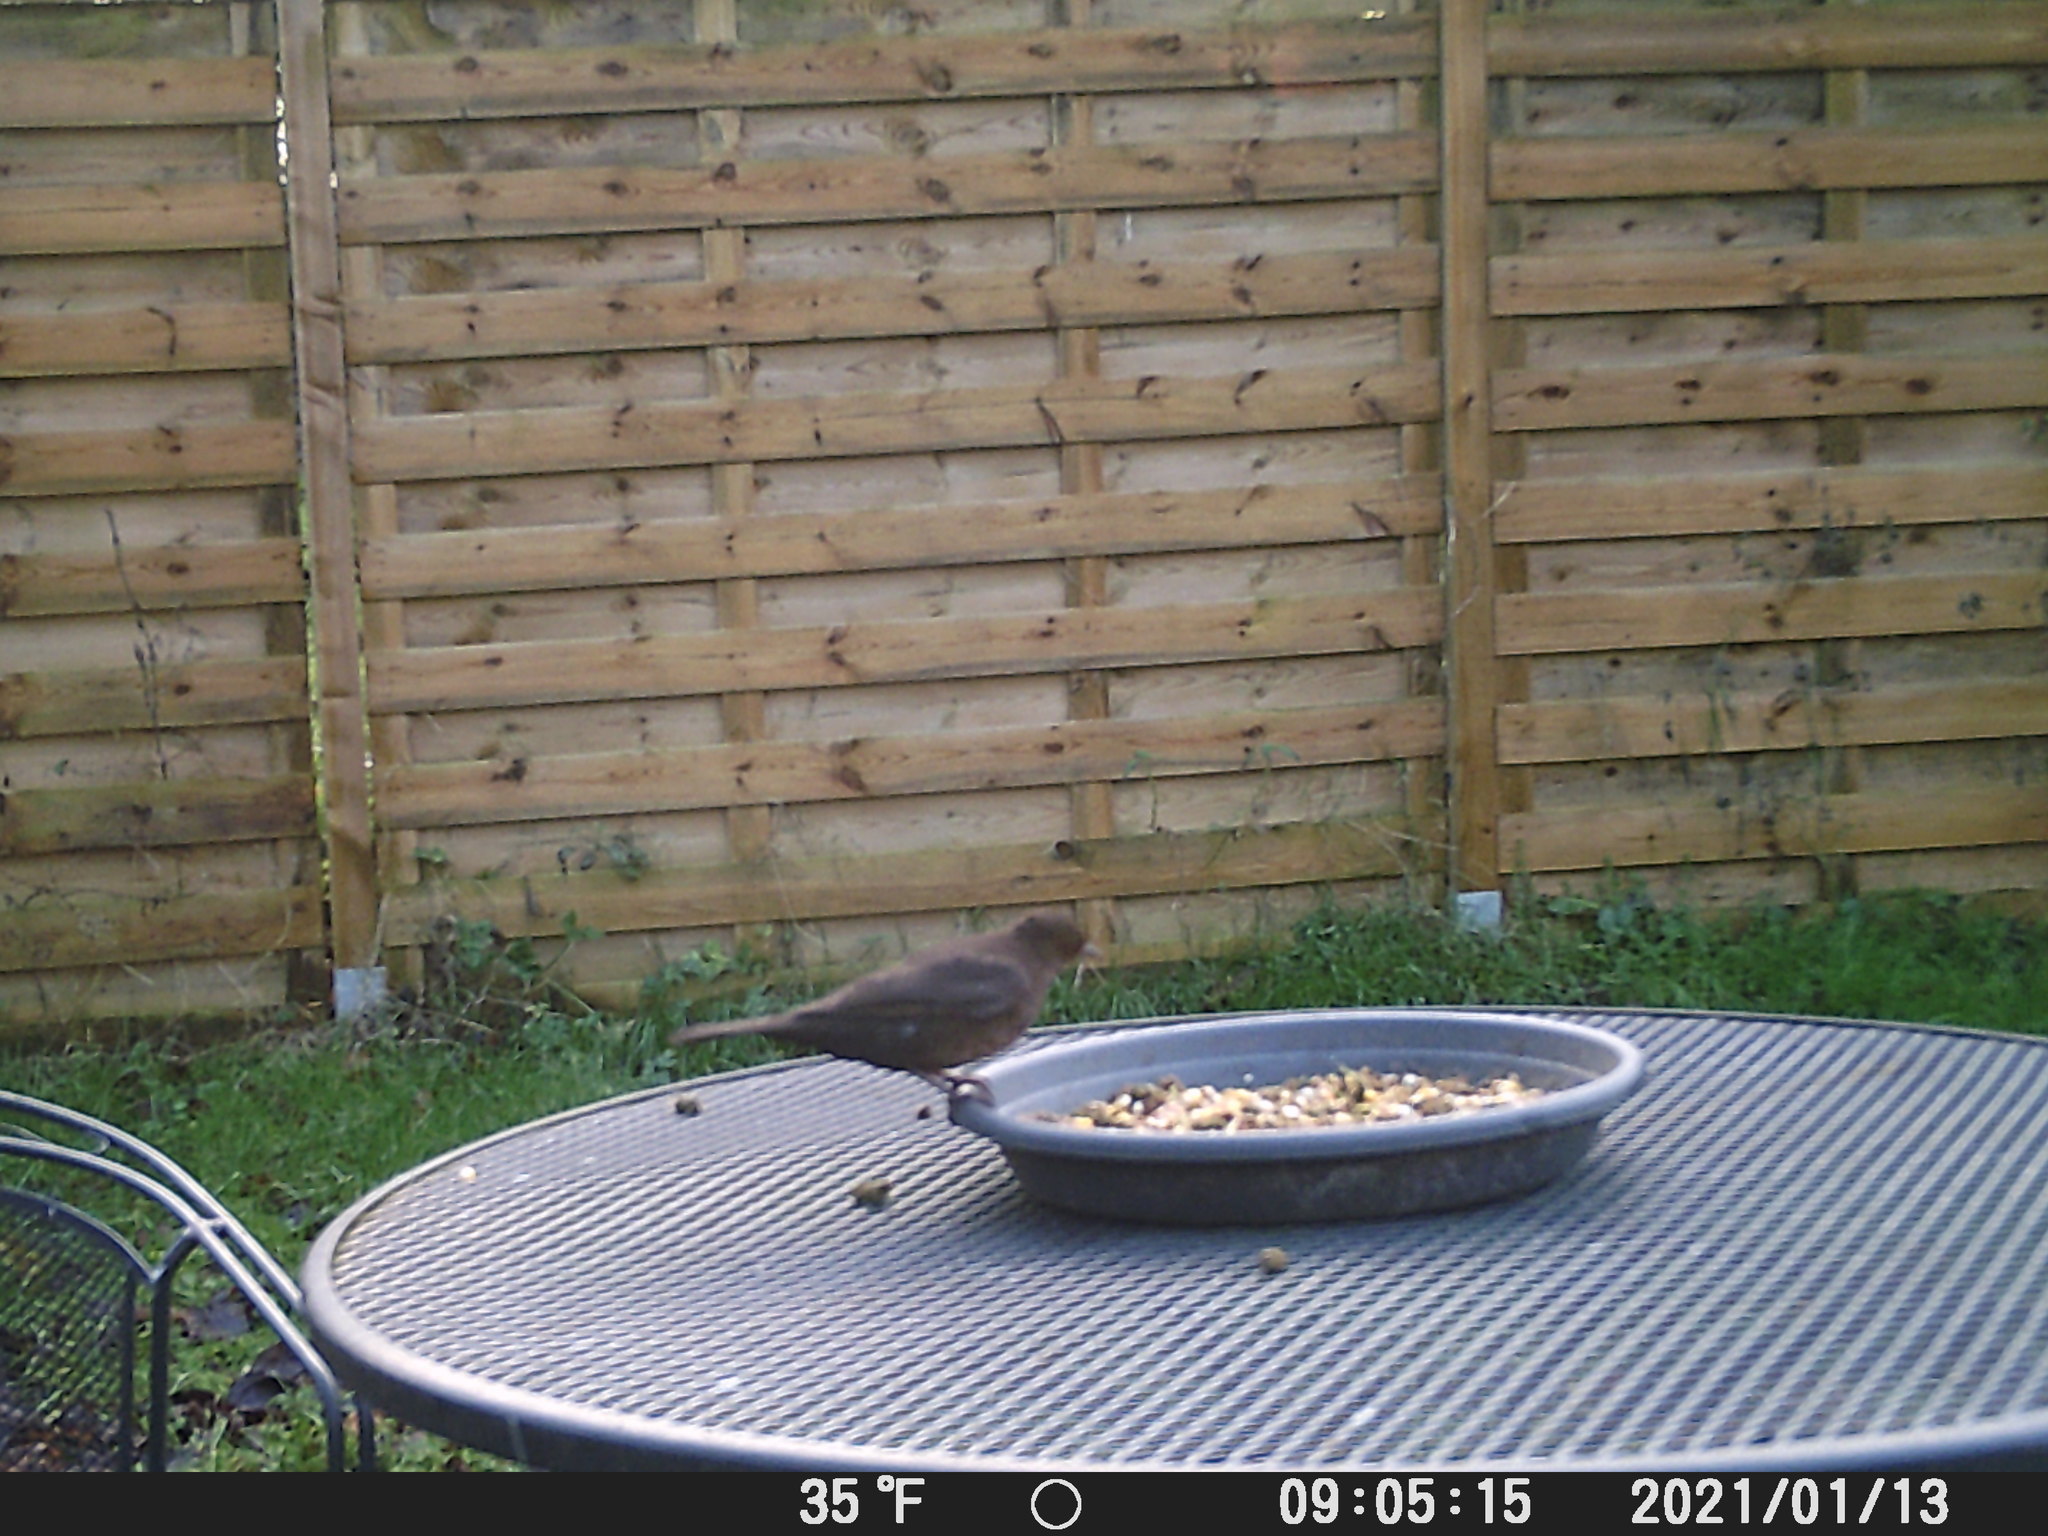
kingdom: Animalia
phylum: Chordata
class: Aves
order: Passeriformes
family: Turdidae
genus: Turdus
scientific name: Turdus merula
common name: Common blackbird
